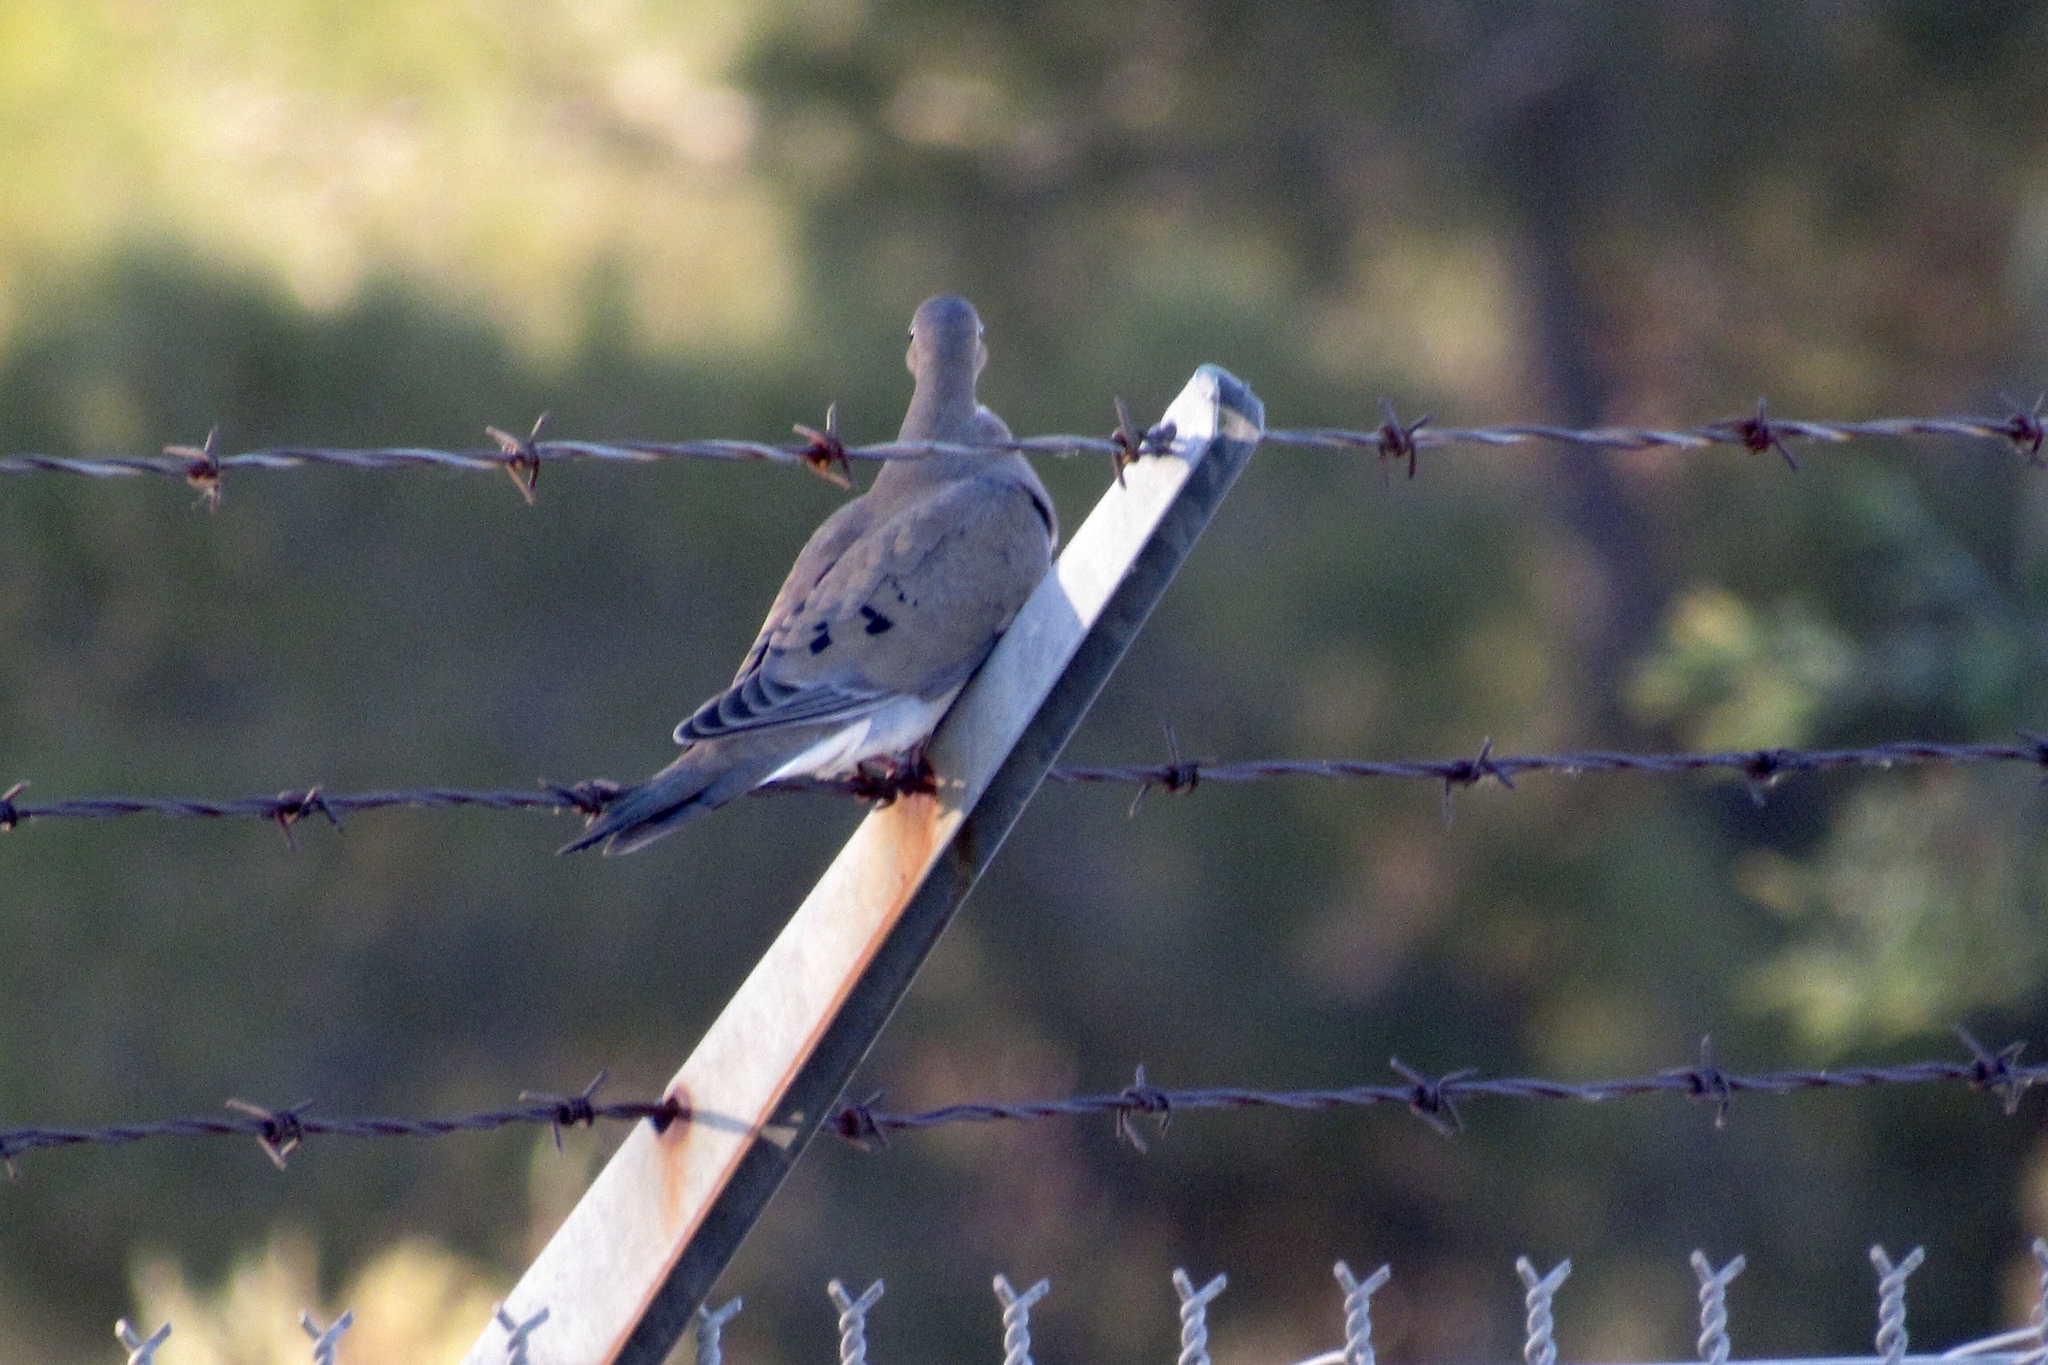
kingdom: Animalia
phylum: Chordata
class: Aves
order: Columbiformes
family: Columbidae
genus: Zenaida
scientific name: Zenaida macroura
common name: Mourning dove
